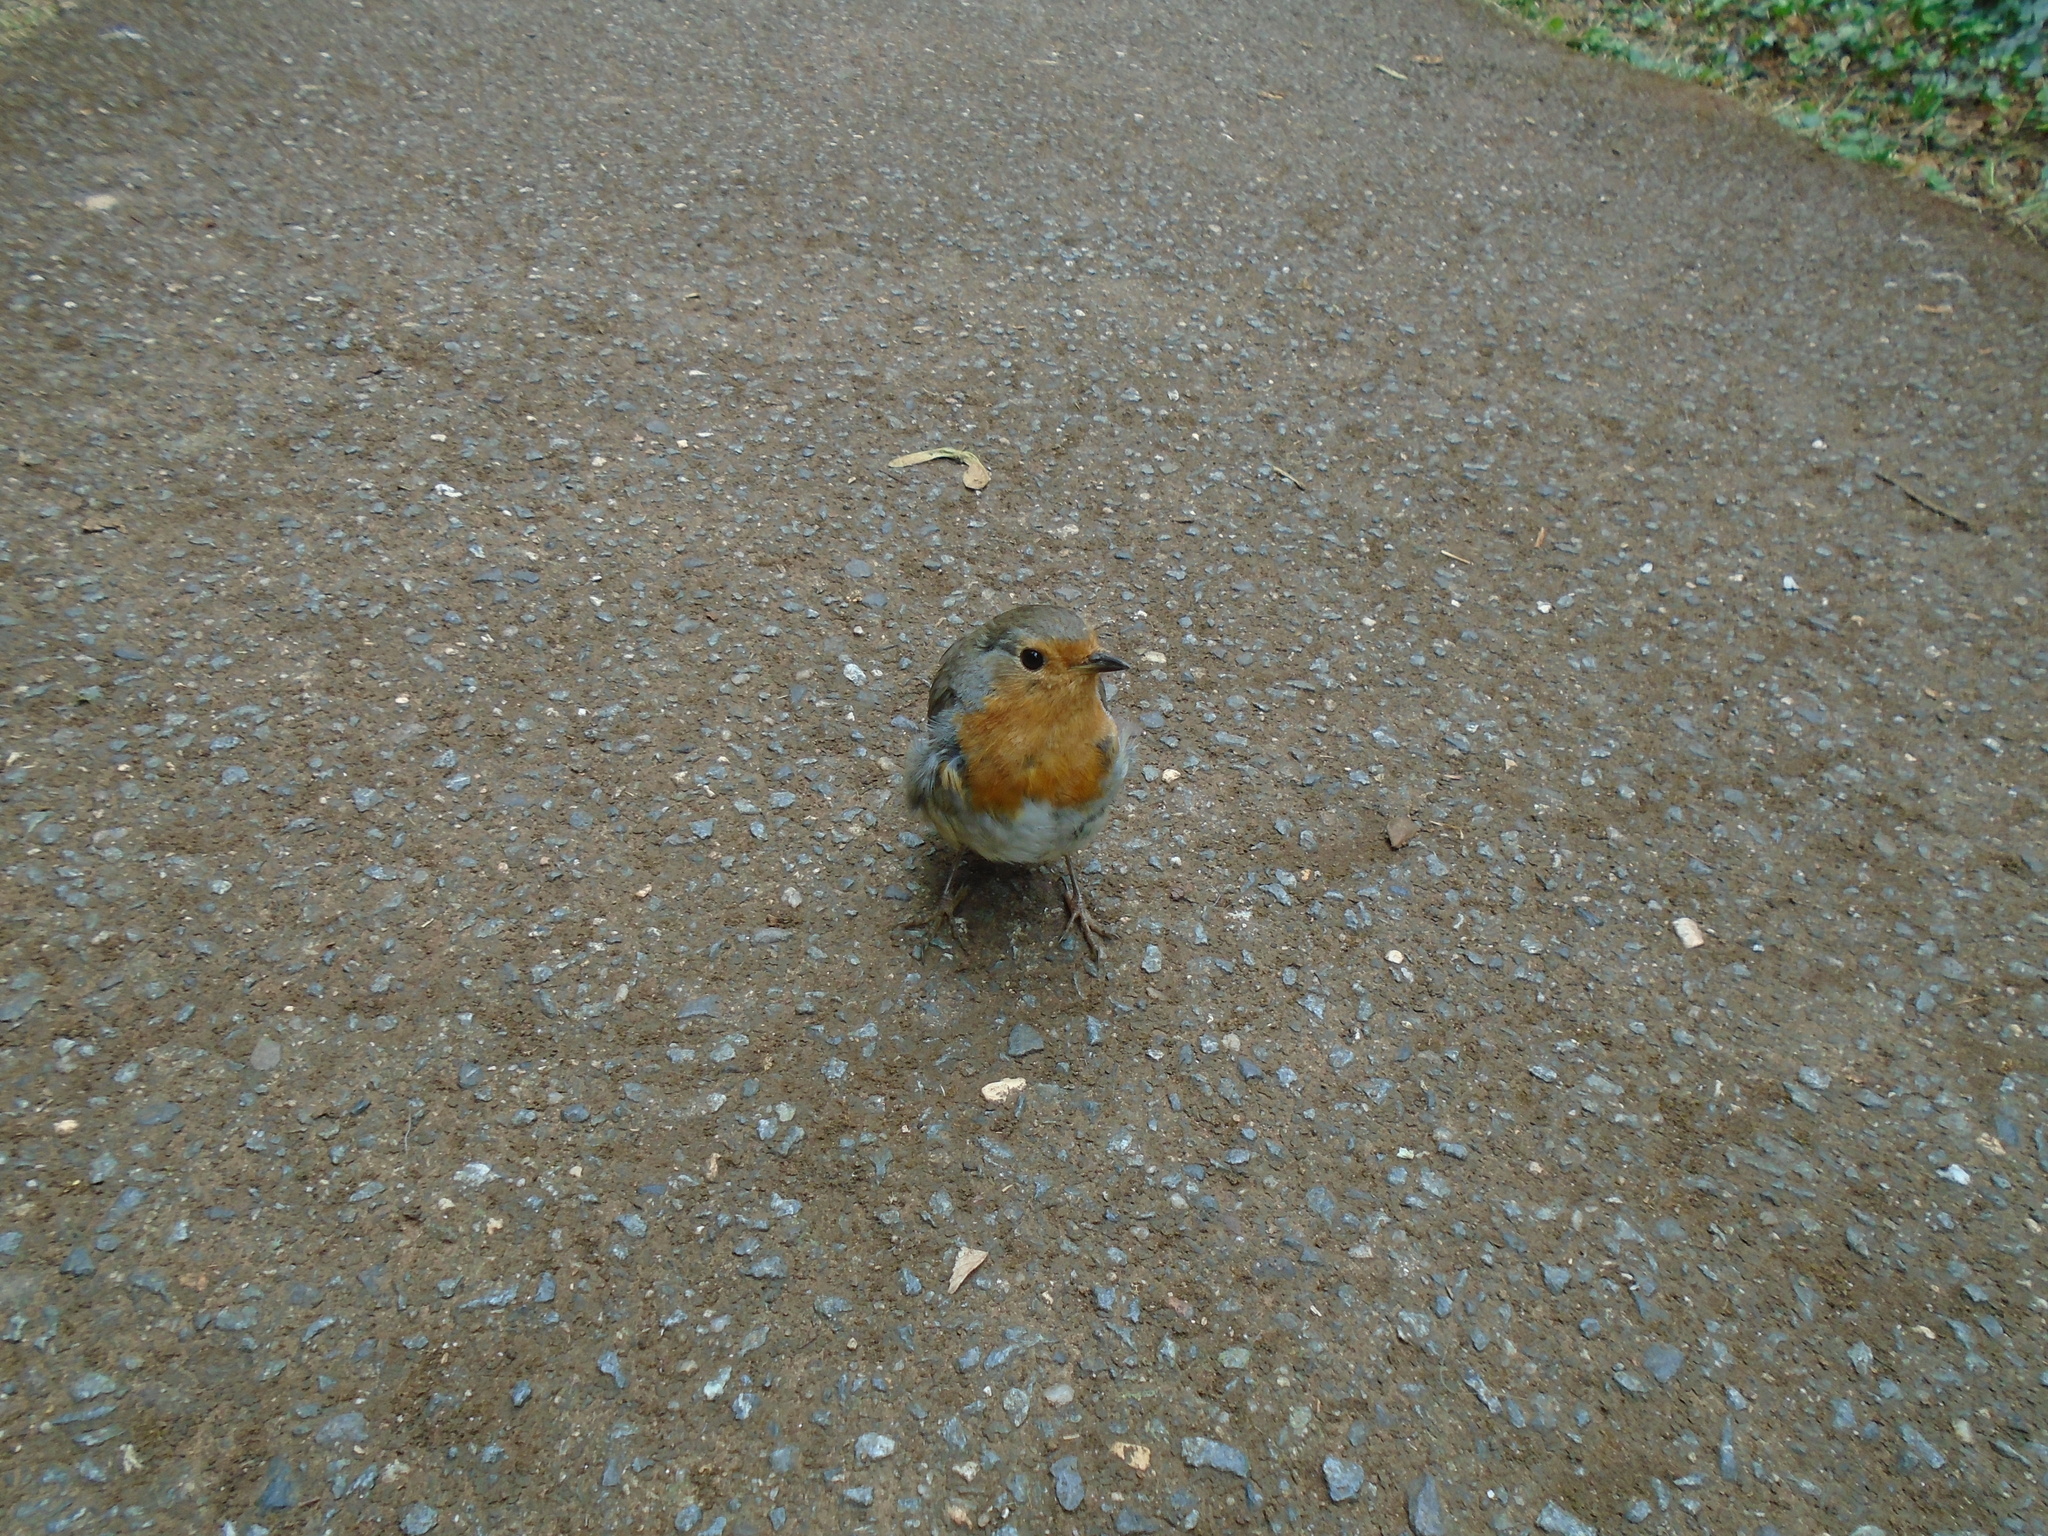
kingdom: Animalia
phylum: Chordata
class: Aves
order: Passeriformes
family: Muscicapidae
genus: Erithacus
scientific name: Erithacus rubecula
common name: European robin
